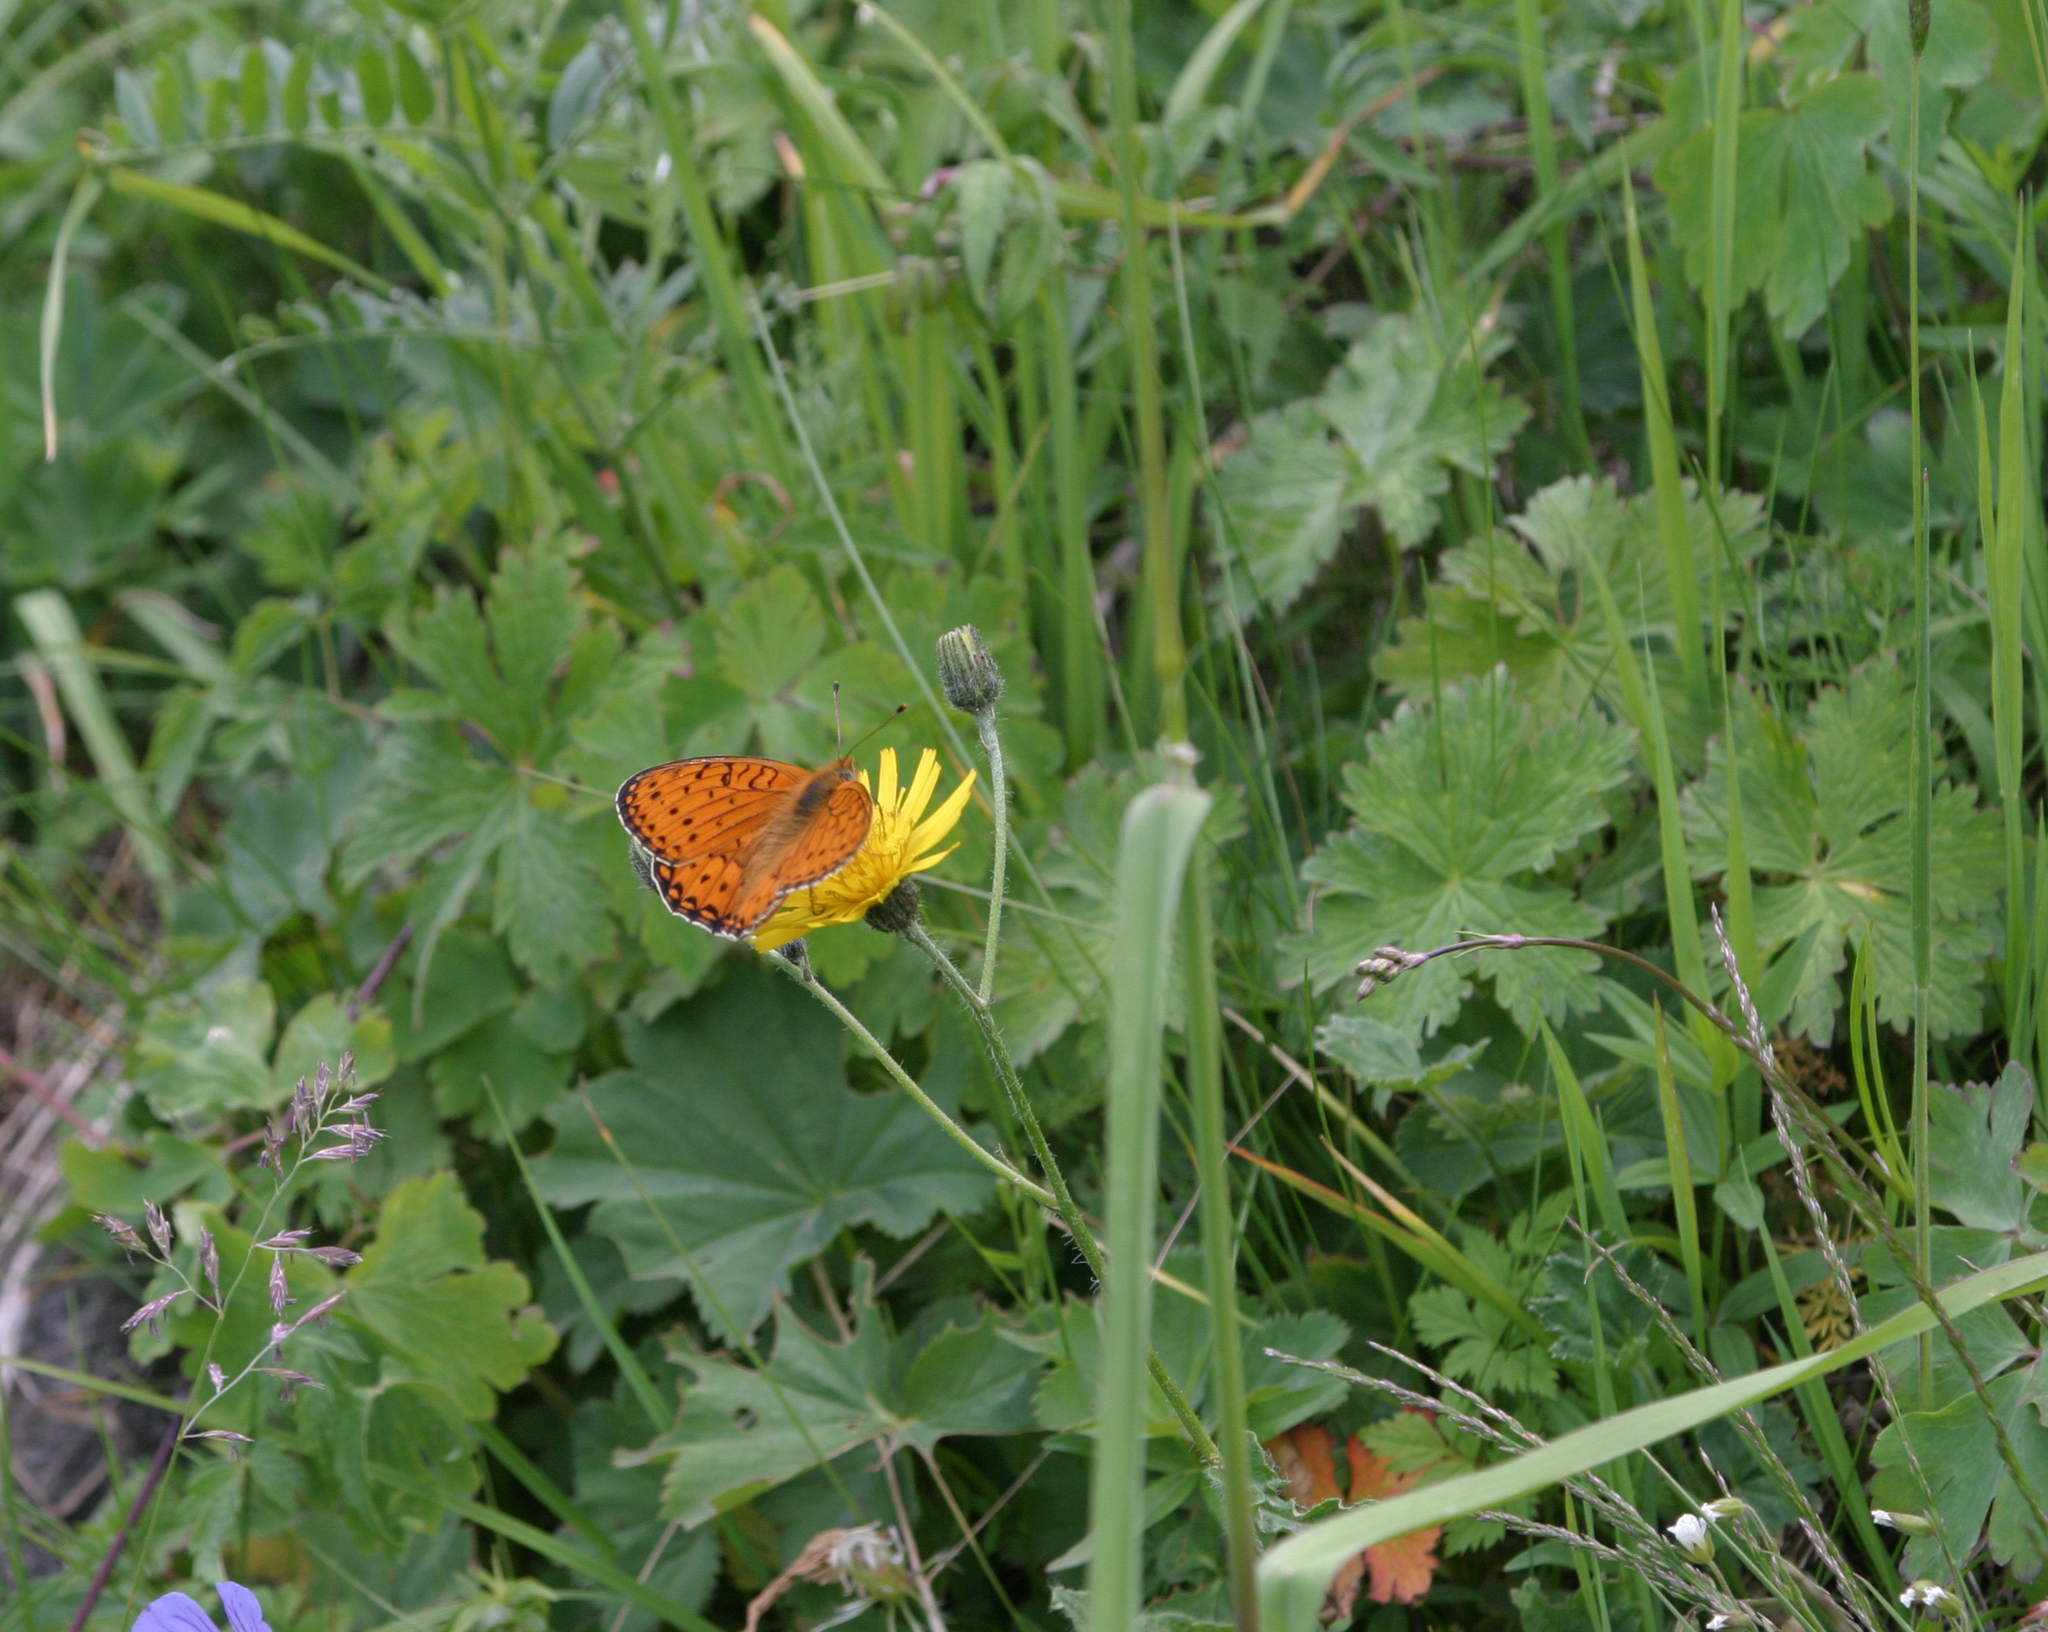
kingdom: Animalia
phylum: Arthropoda
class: Insecta
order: Lepidoptera
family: Nymphalidae
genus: Fabriciana
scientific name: Fabriciana niobe
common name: Niobe fritillary
